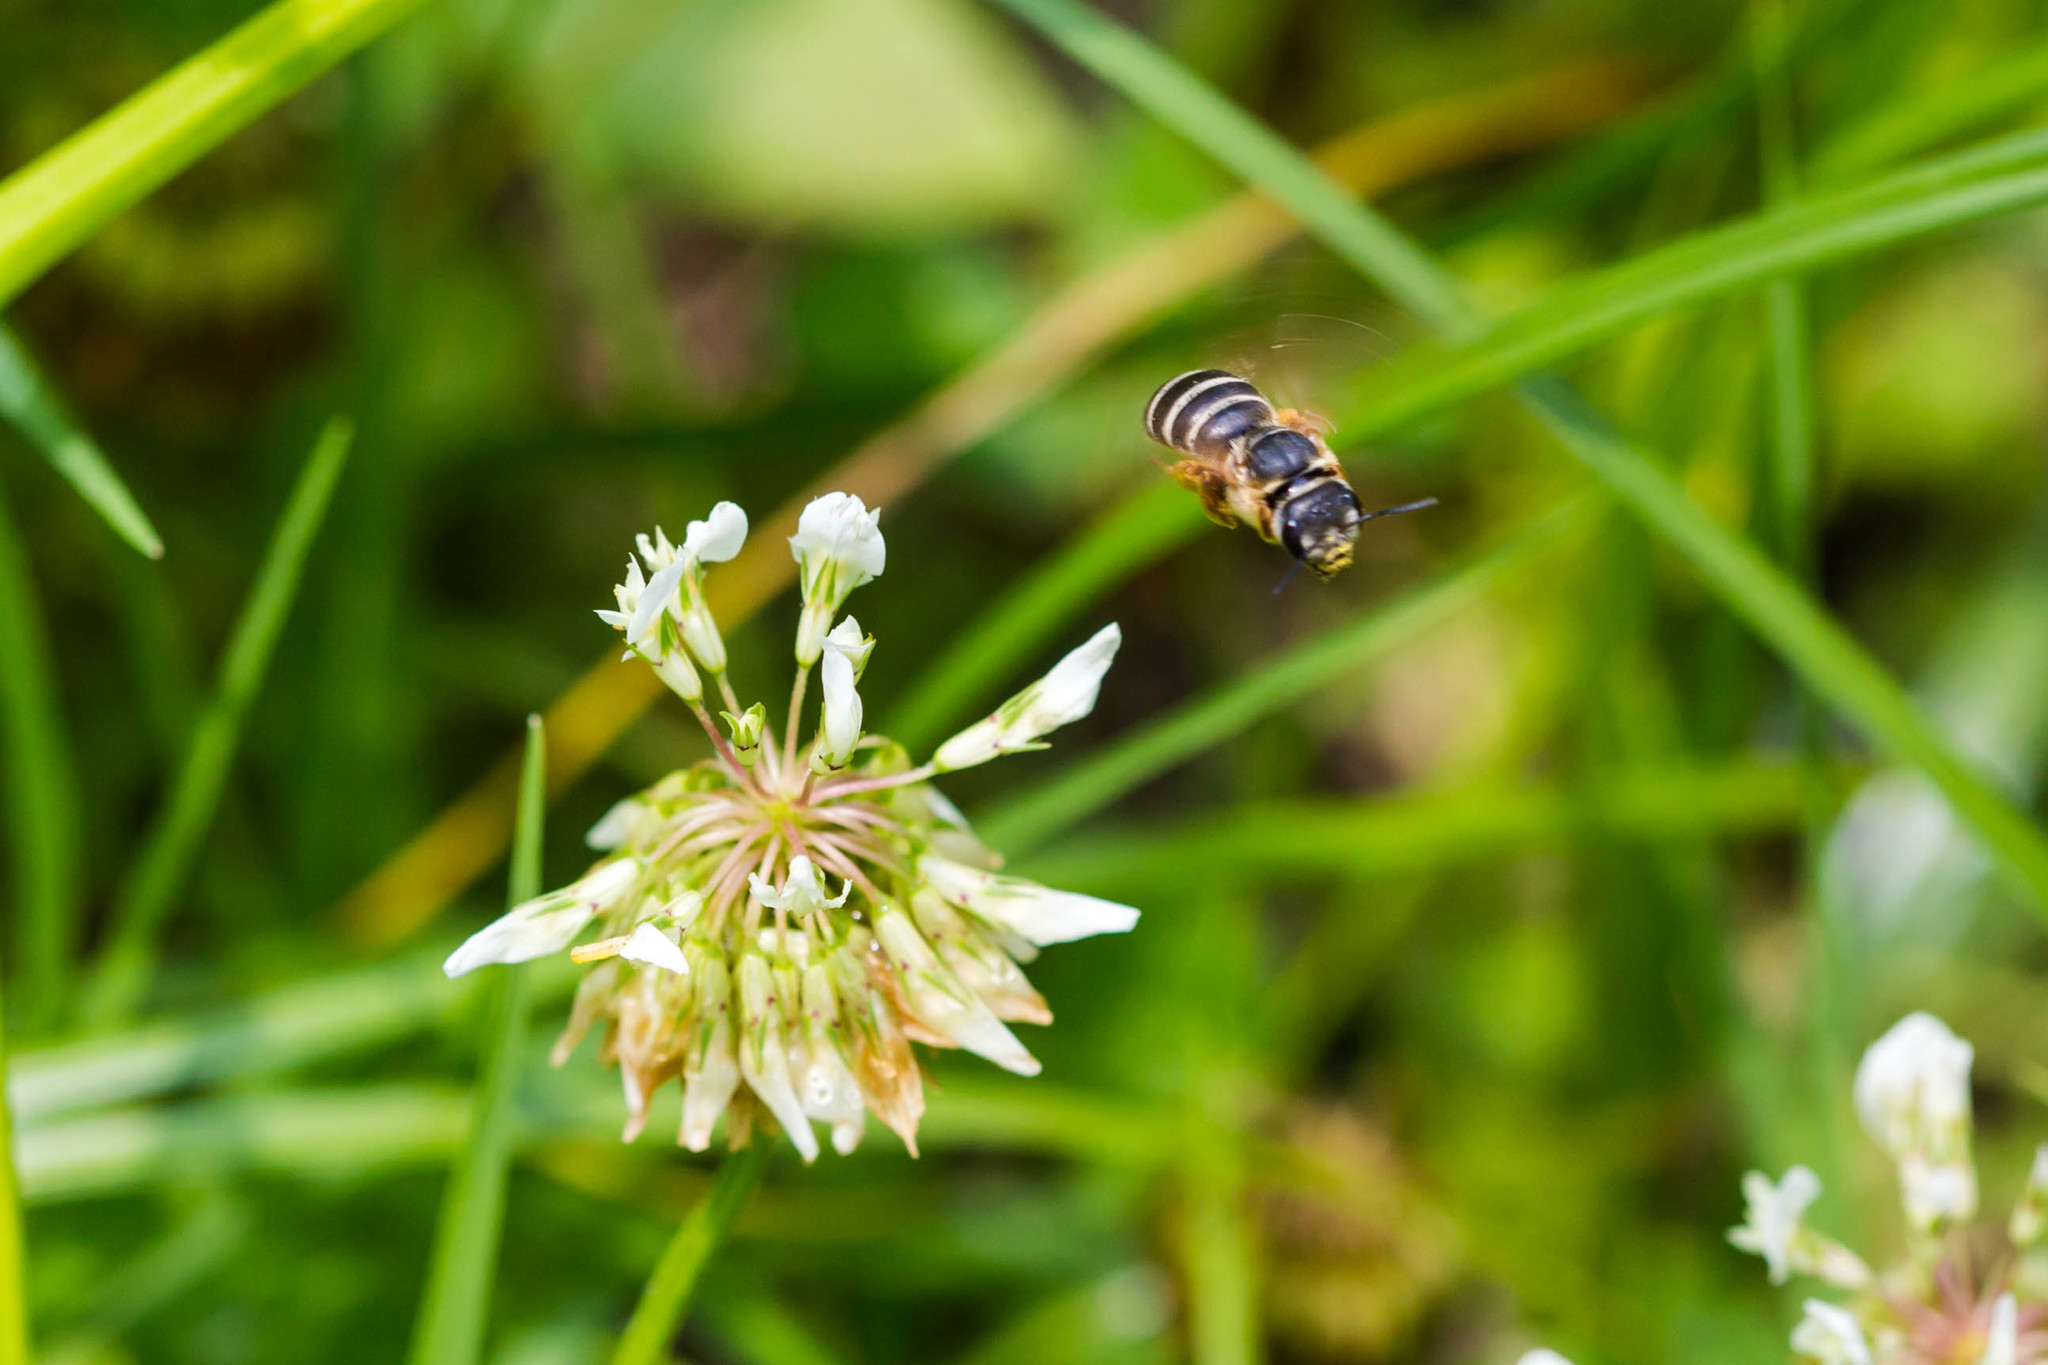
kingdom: Animalia
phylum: Arthropoda
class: Insecta
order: Hymenoptera
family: Halictidae
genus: Halictus
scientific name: Halictus parallelus
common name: Parallel-striped sweat bee
